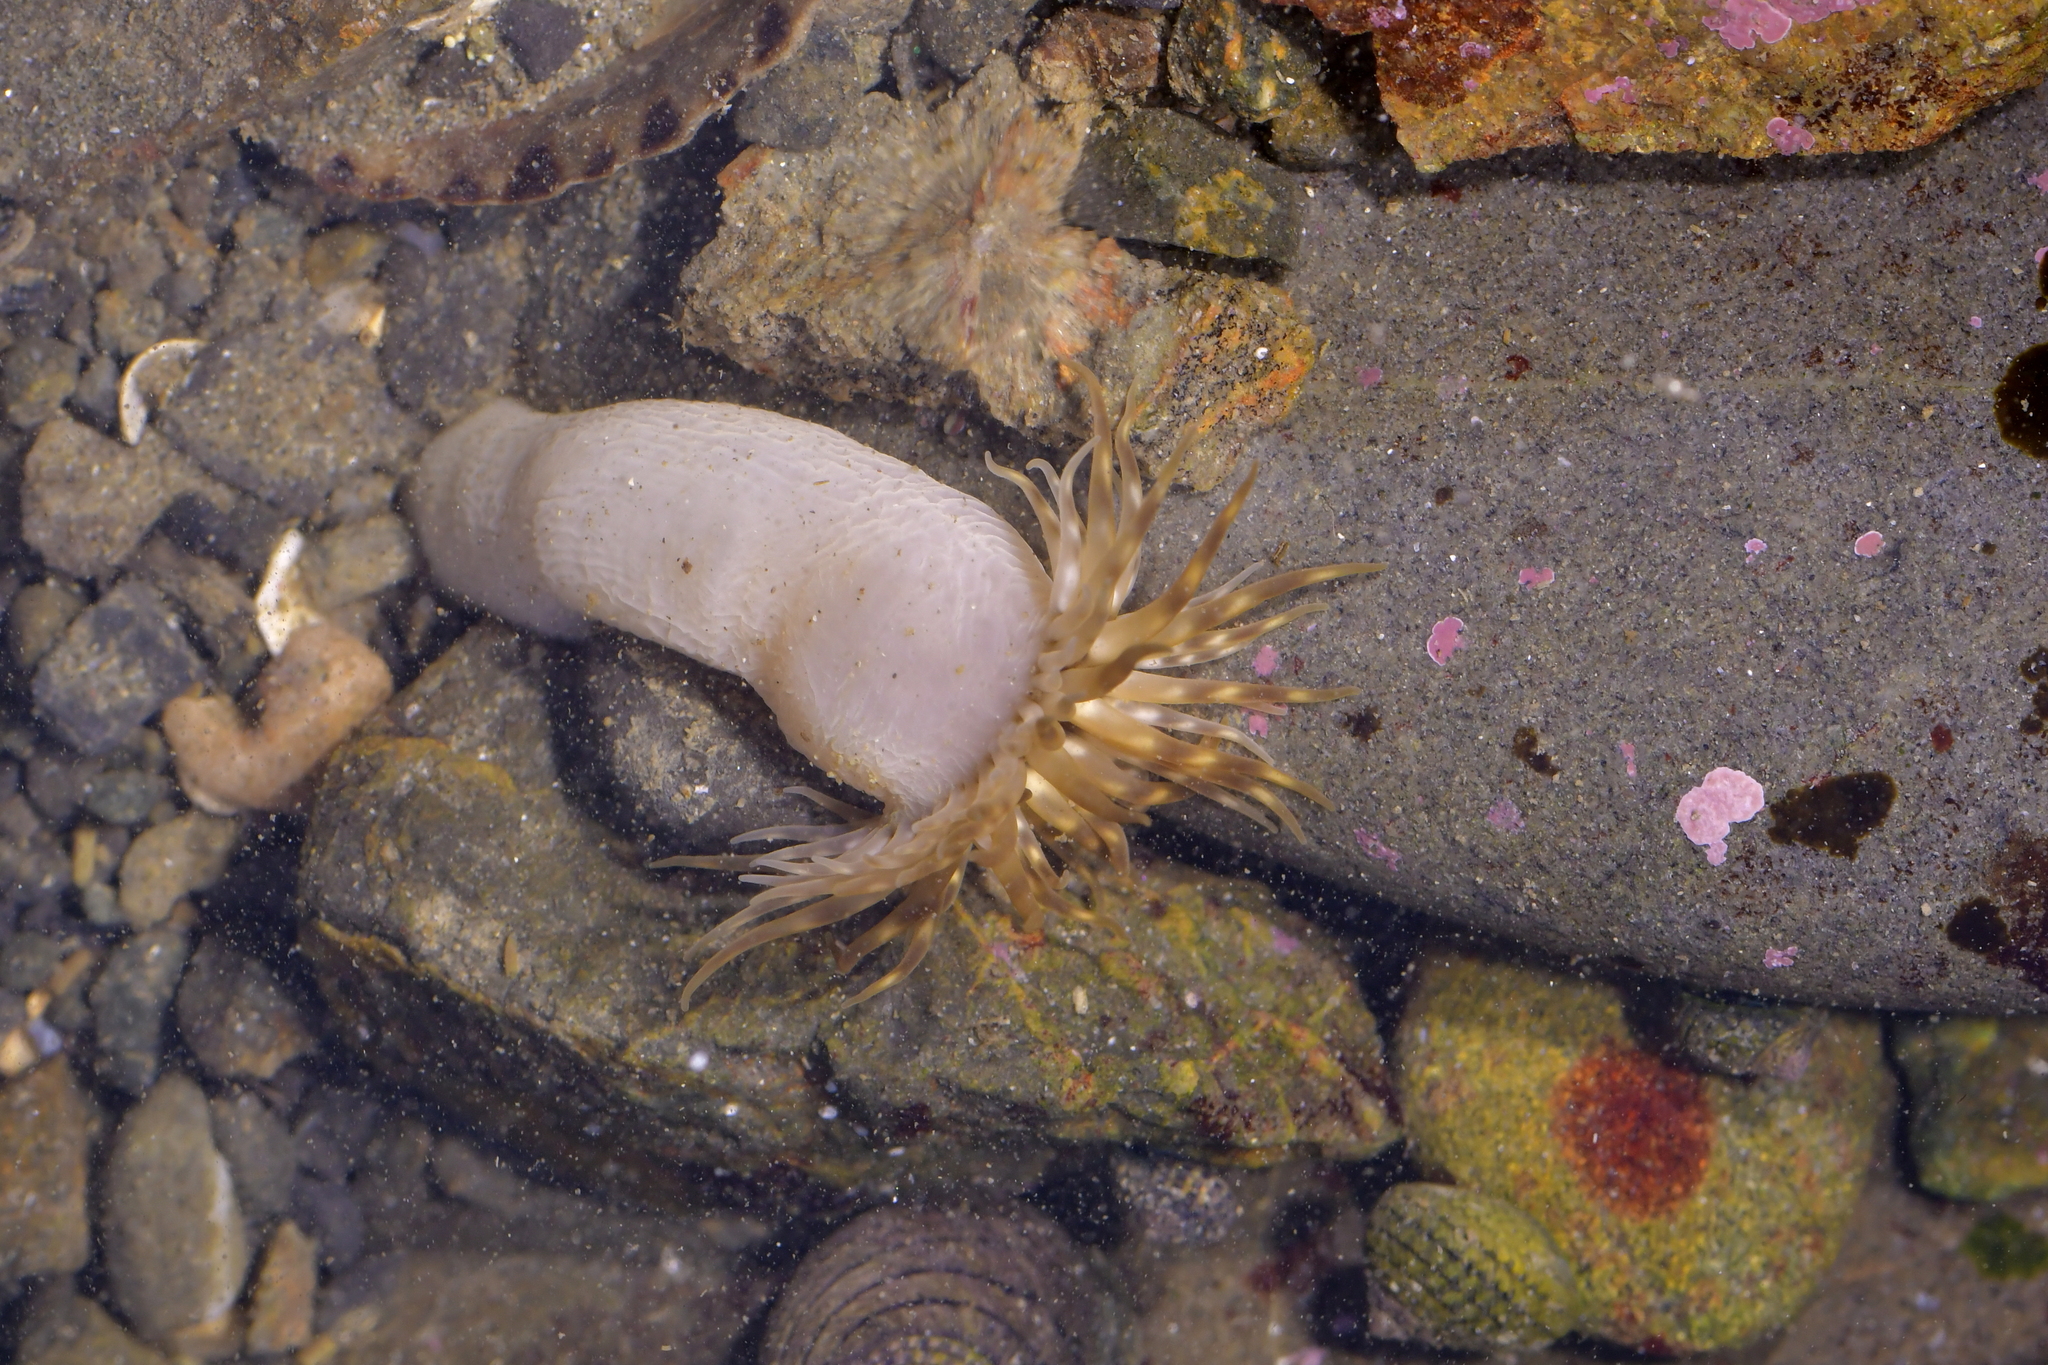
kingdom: Animalia
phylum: Cnidaria
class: Anthozoa
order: Actiniaria
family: Isanthidae
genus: Isoparactis
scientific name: Isoparactis ferax
